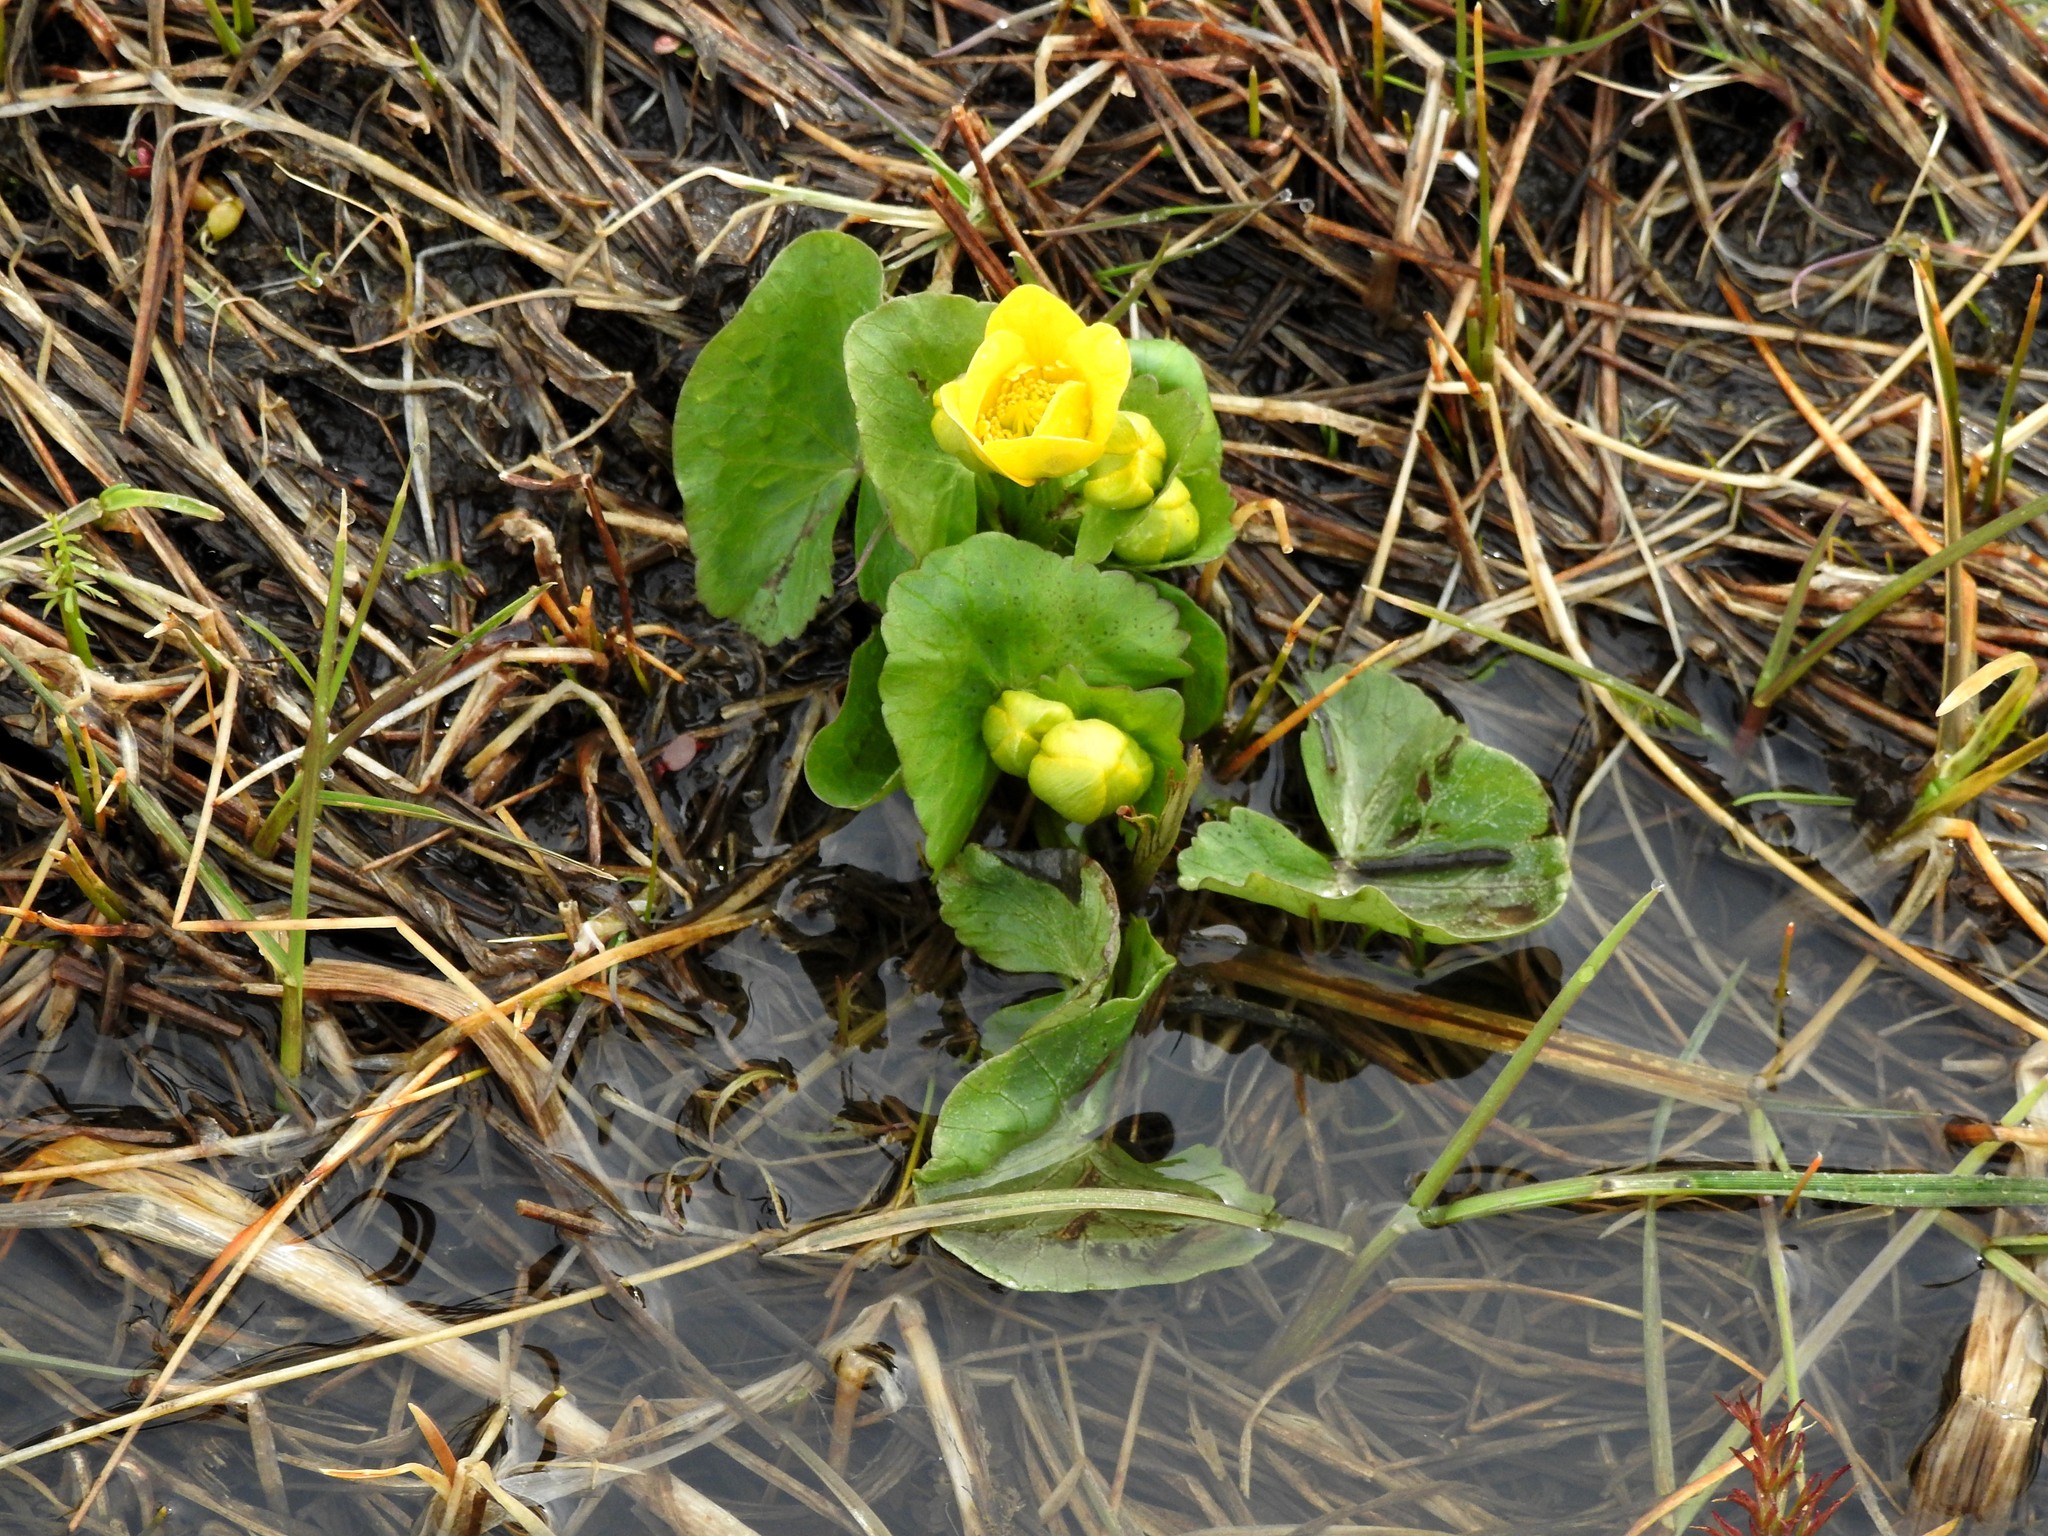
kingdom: Plantae
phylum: Tracheophyta
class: Magnoliopsida
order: Ranunculales
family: Ranunculaceae
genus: Caltha
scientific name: Caltha palustris
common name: Marsh marigold
